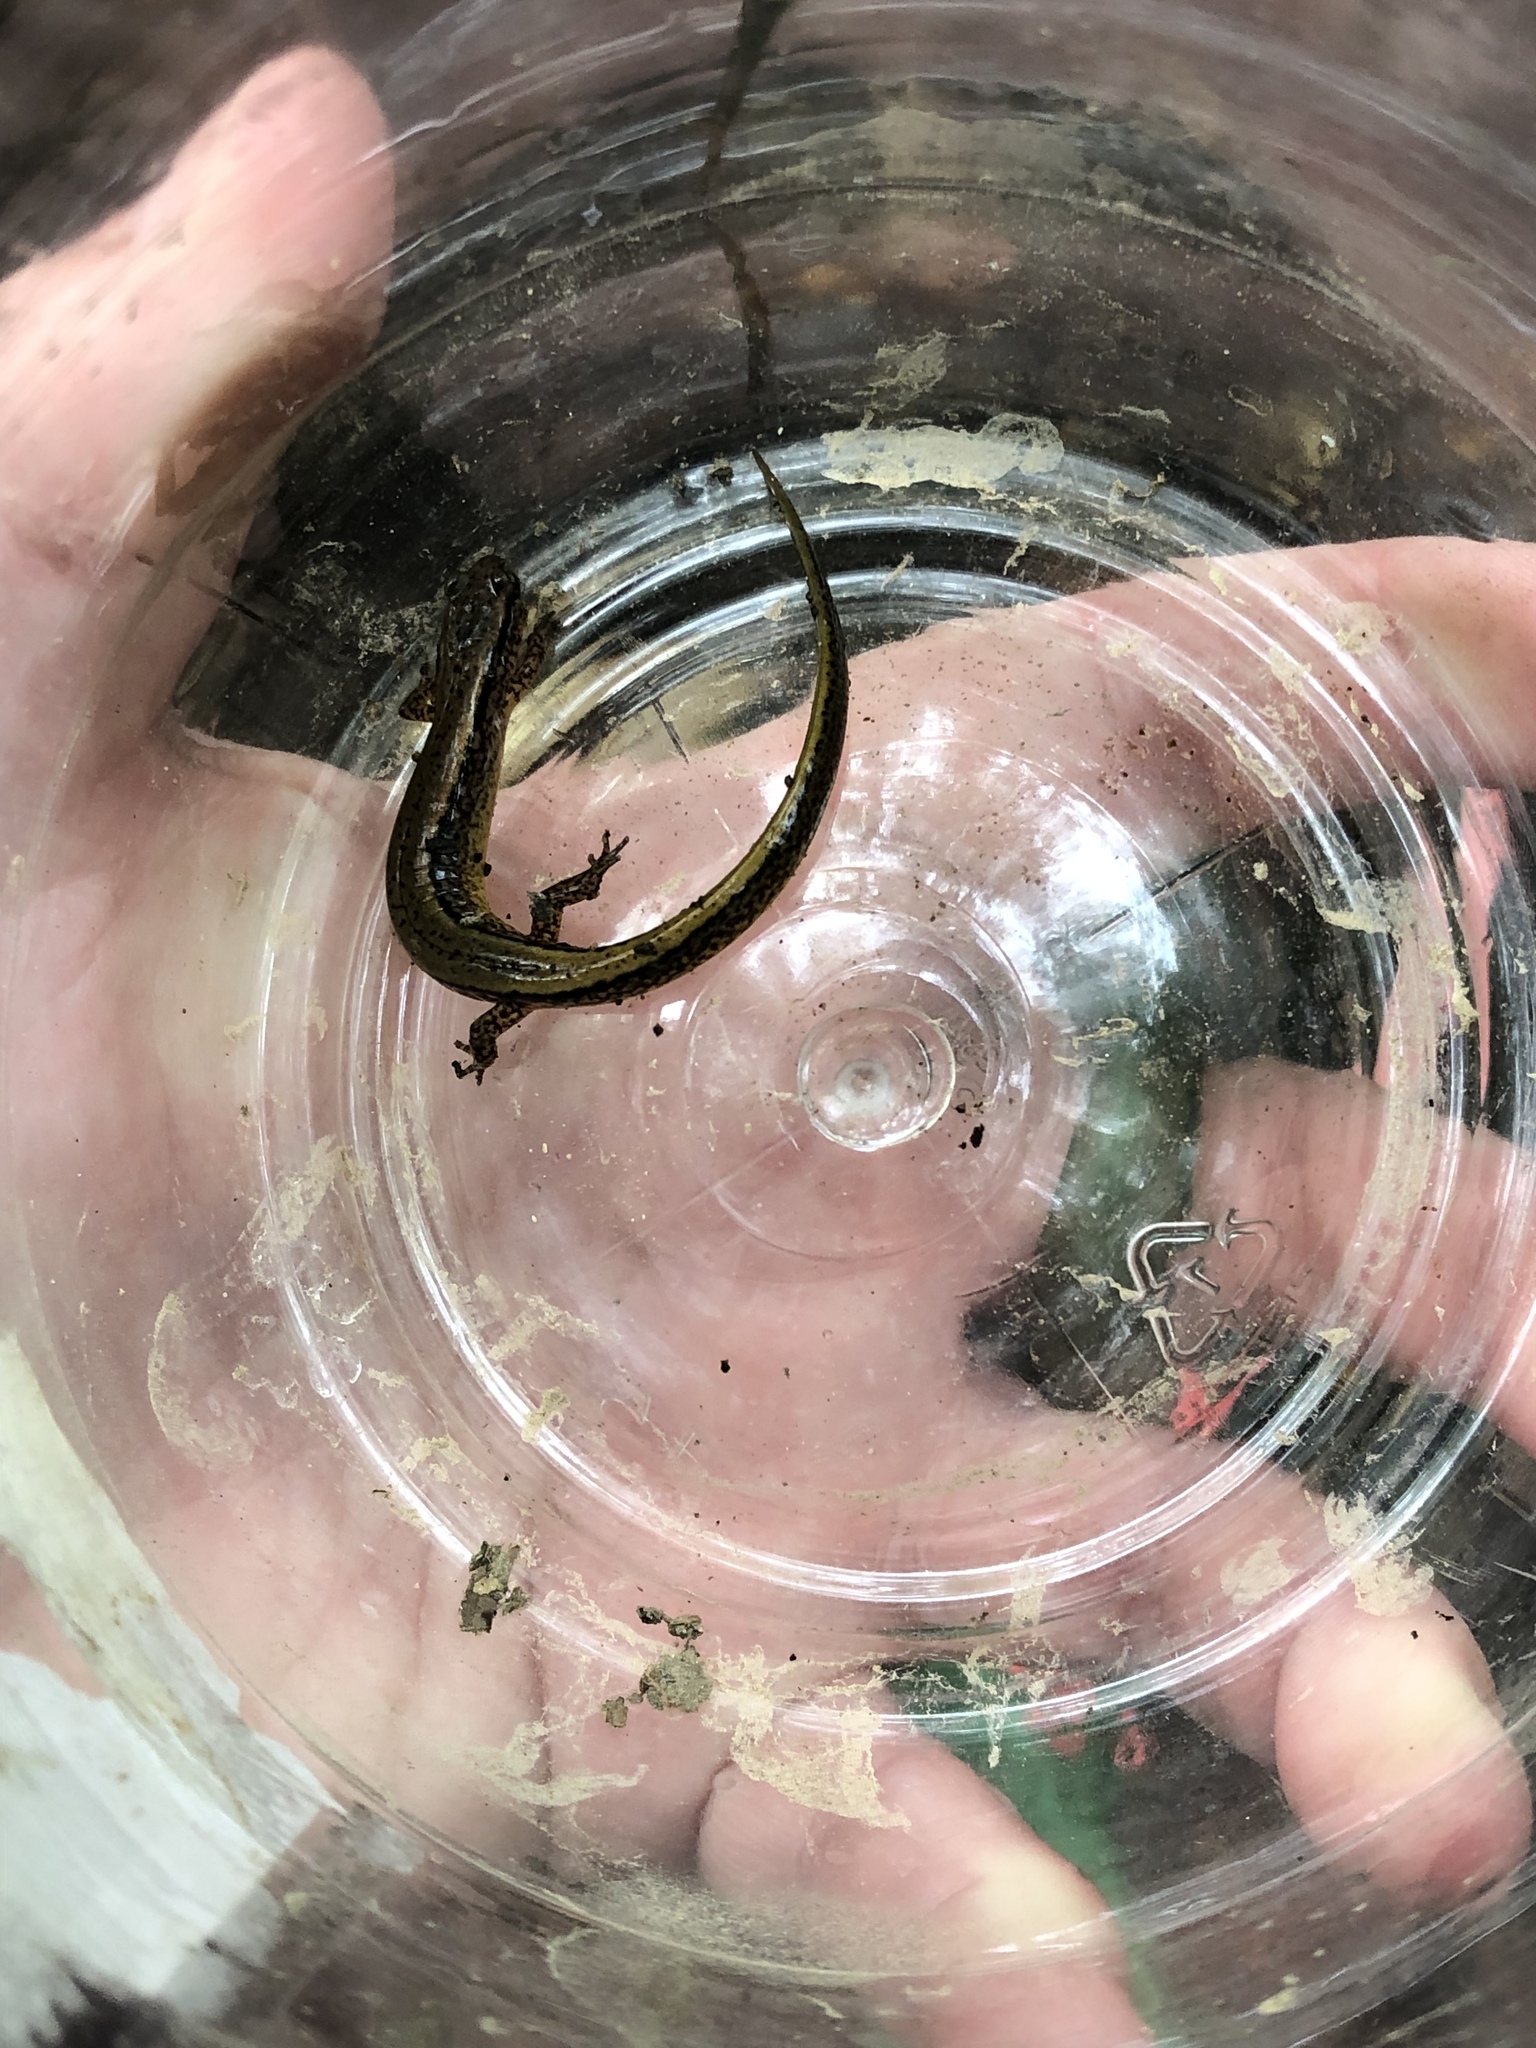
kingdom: Animalia
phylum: Chordata
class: Amphibia
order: Caudata
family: Plethodontidae
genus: Eurycea
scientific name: Eurycea bislineata
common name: Northern two-lined salamander
